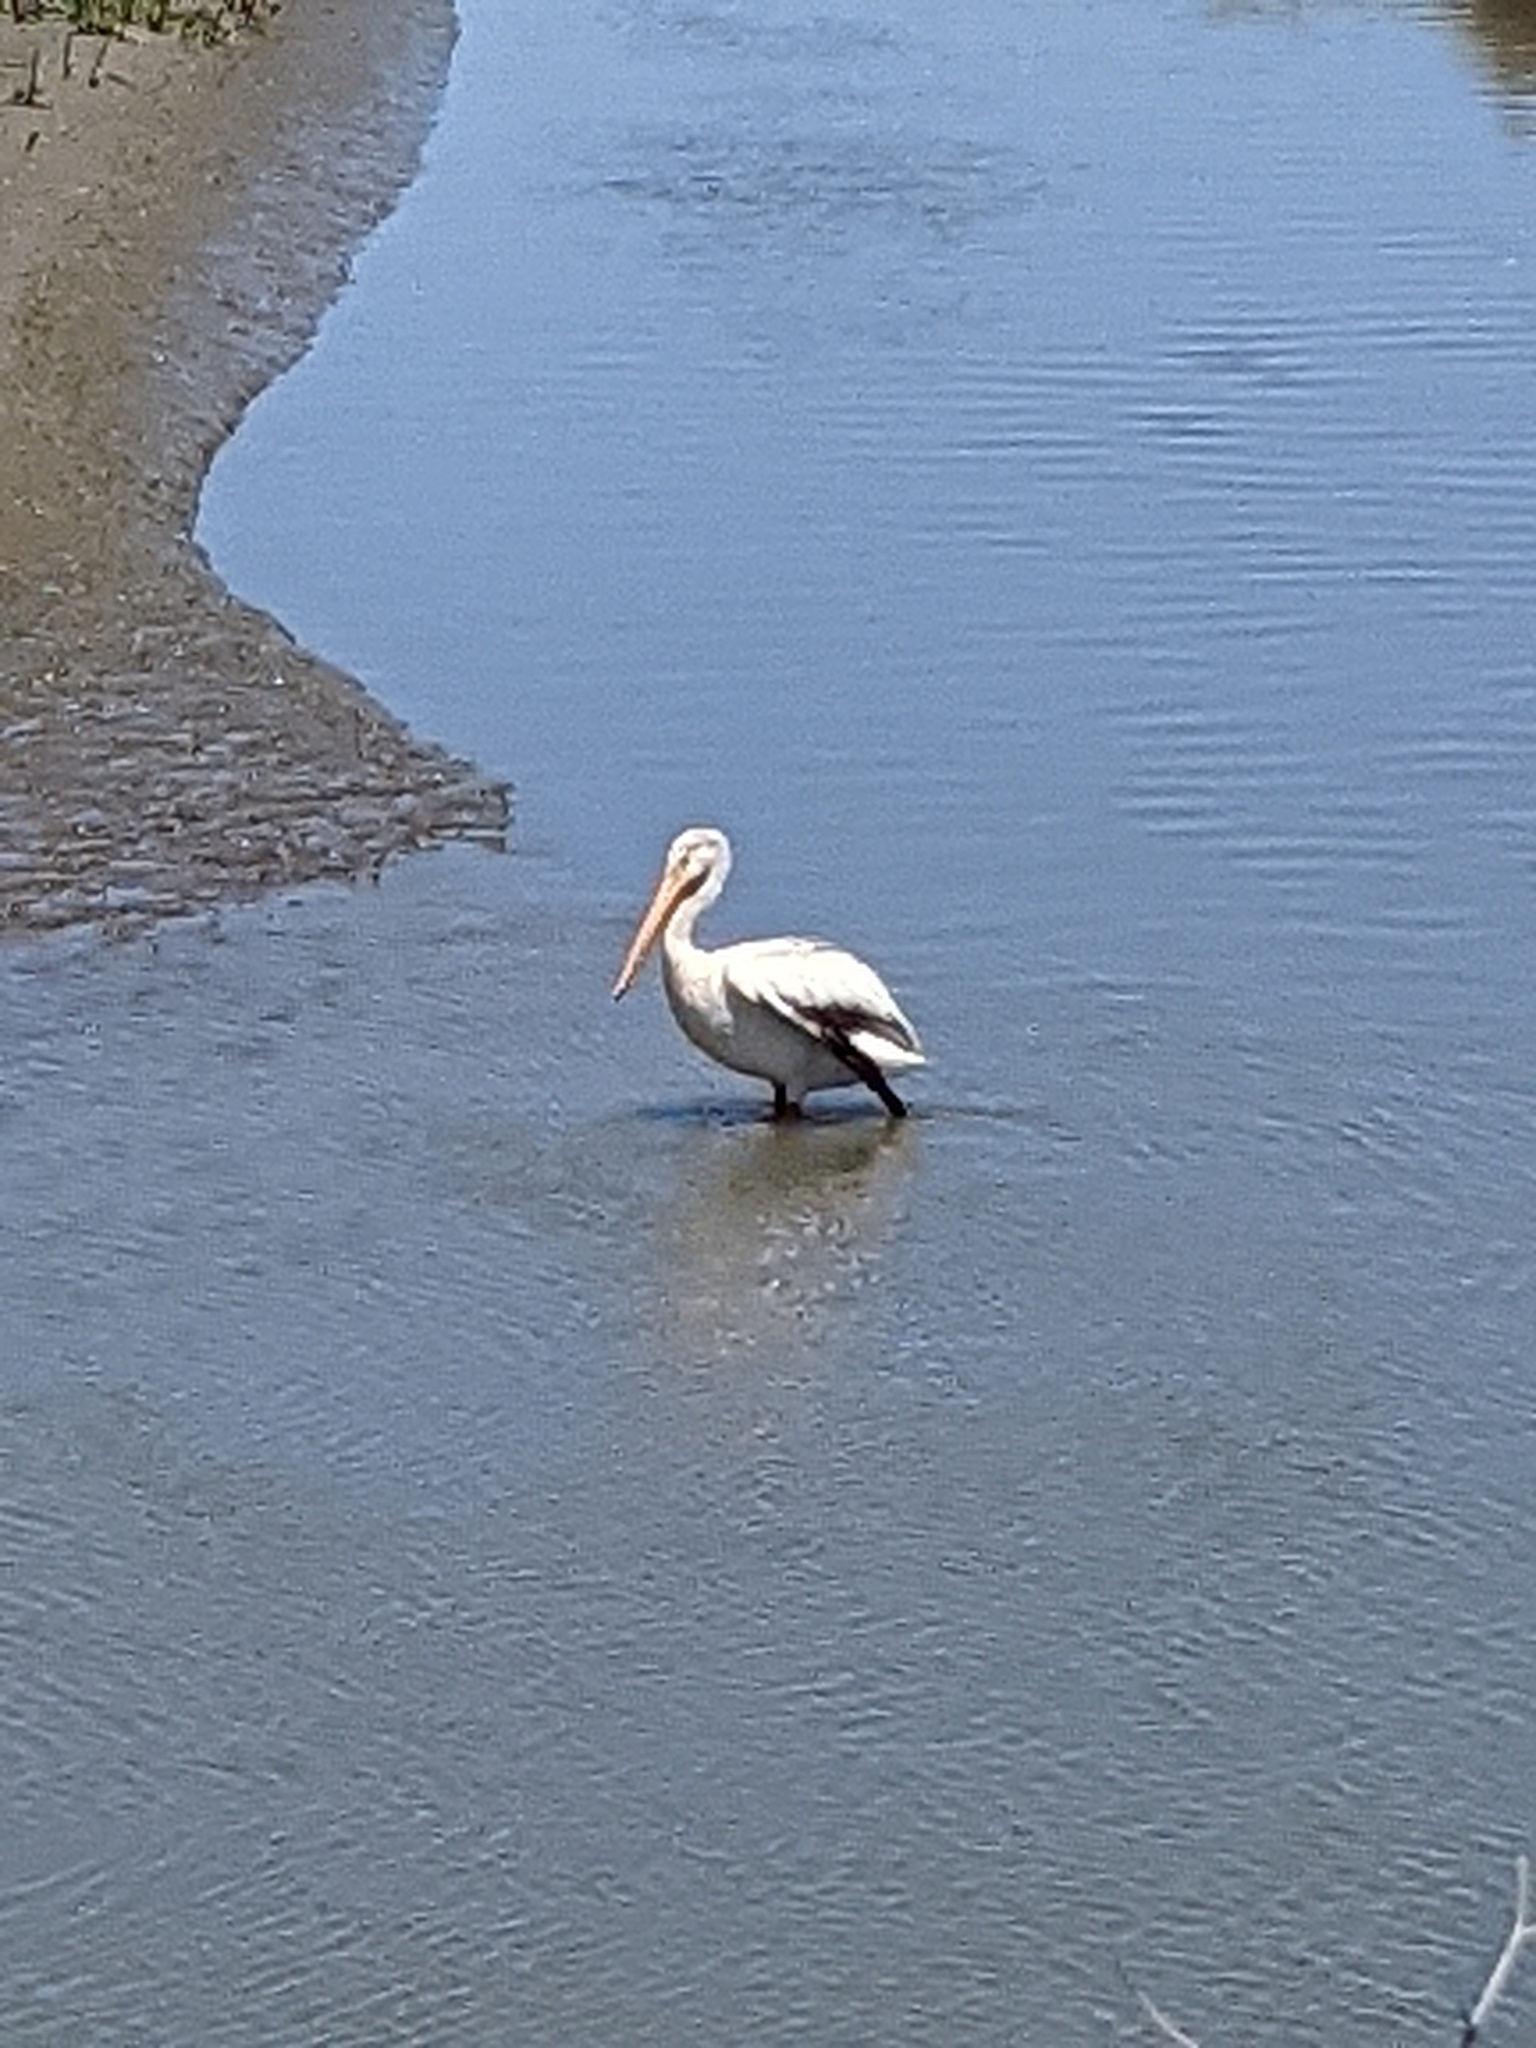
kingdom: Animalia
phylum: Chordata
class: Aves
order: Pelecaniformes
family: Pelecanidae
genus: Pelecanus
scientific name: Pelecanus erythrorhynchos
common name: American white pelican
